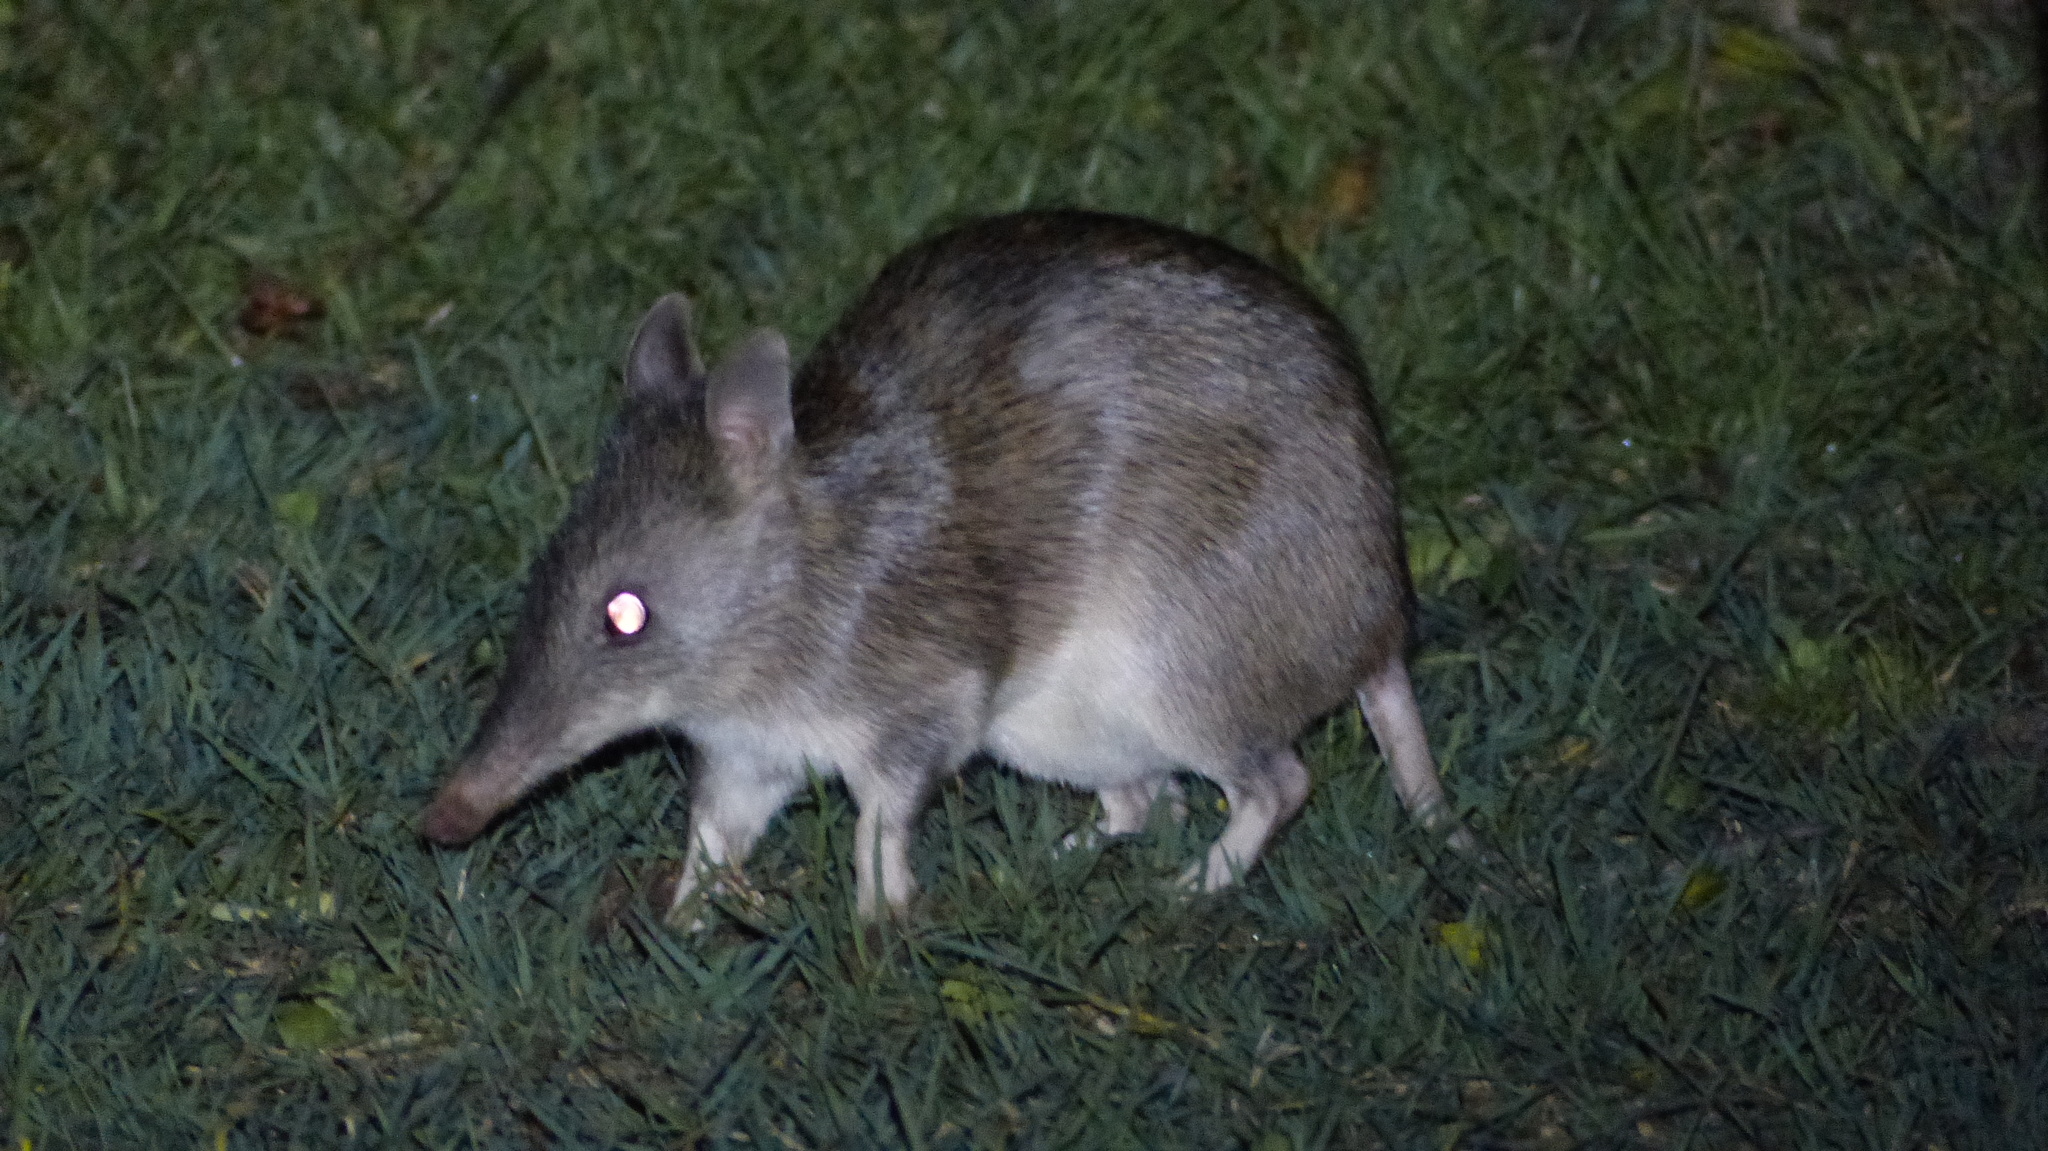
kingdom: Animalia
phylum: Chordata
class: Mammalia
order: Peramelemorphia
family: Peramelidae
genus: Perameles
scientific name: Perameles nasuta
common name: Long-nosed bandicoot
